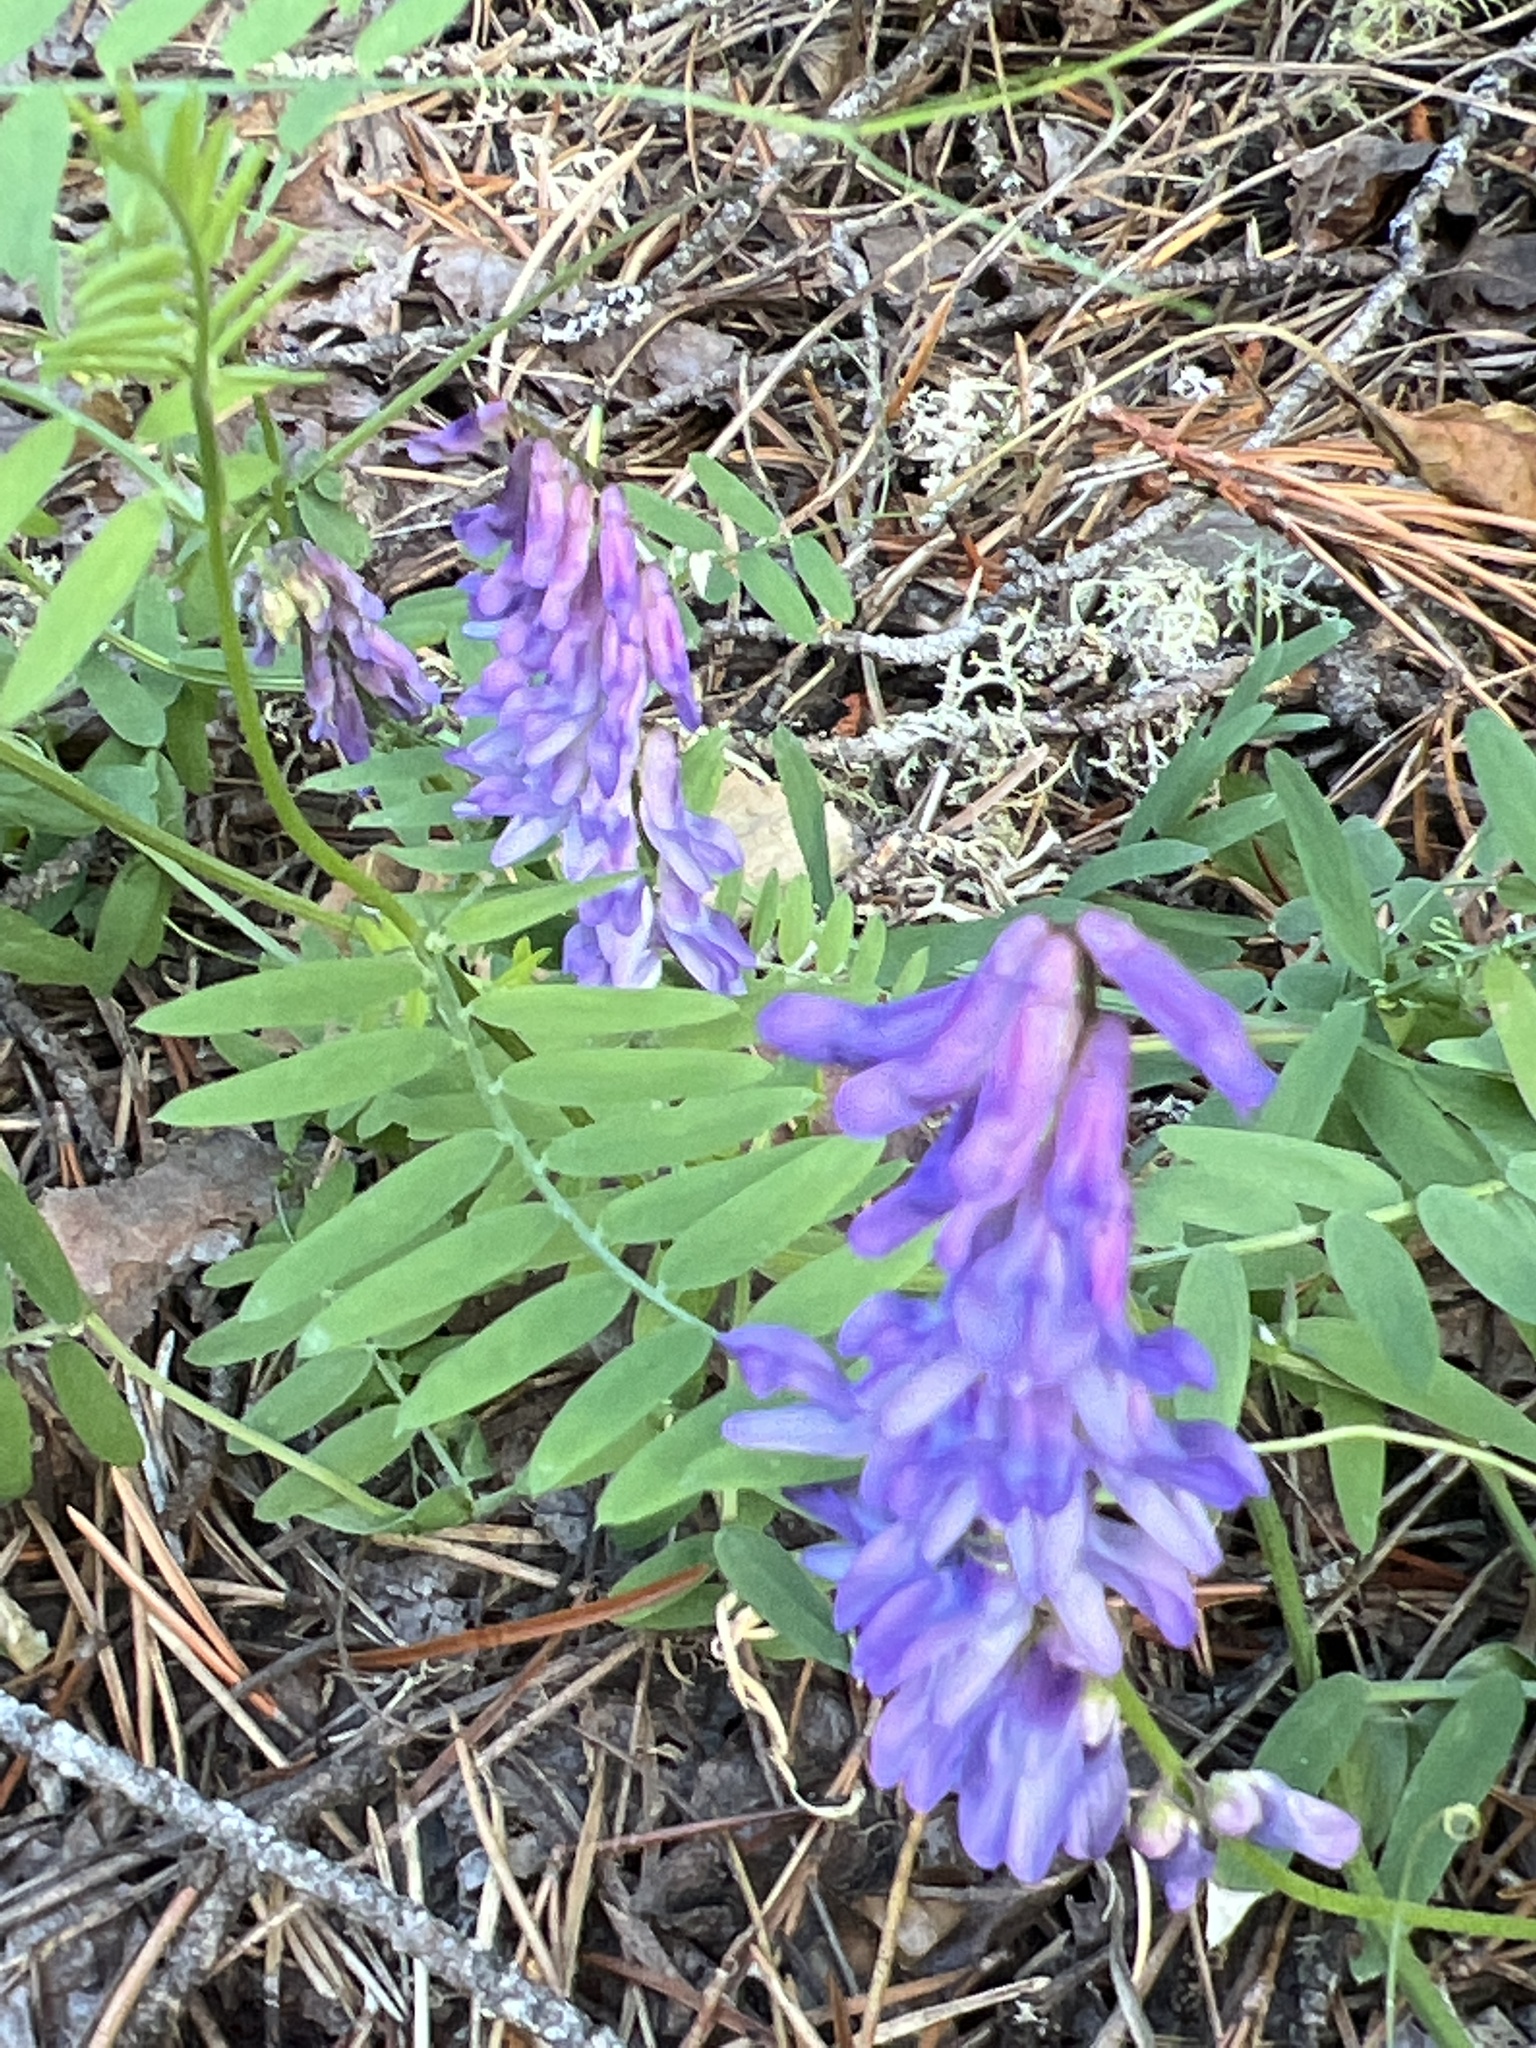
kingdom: Plantae
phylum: Tracheophyta
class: Magnoliopsida
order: Fabales
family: Fabaceae
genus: Vicia
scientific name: Vicia cracca
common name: Bird vetch
